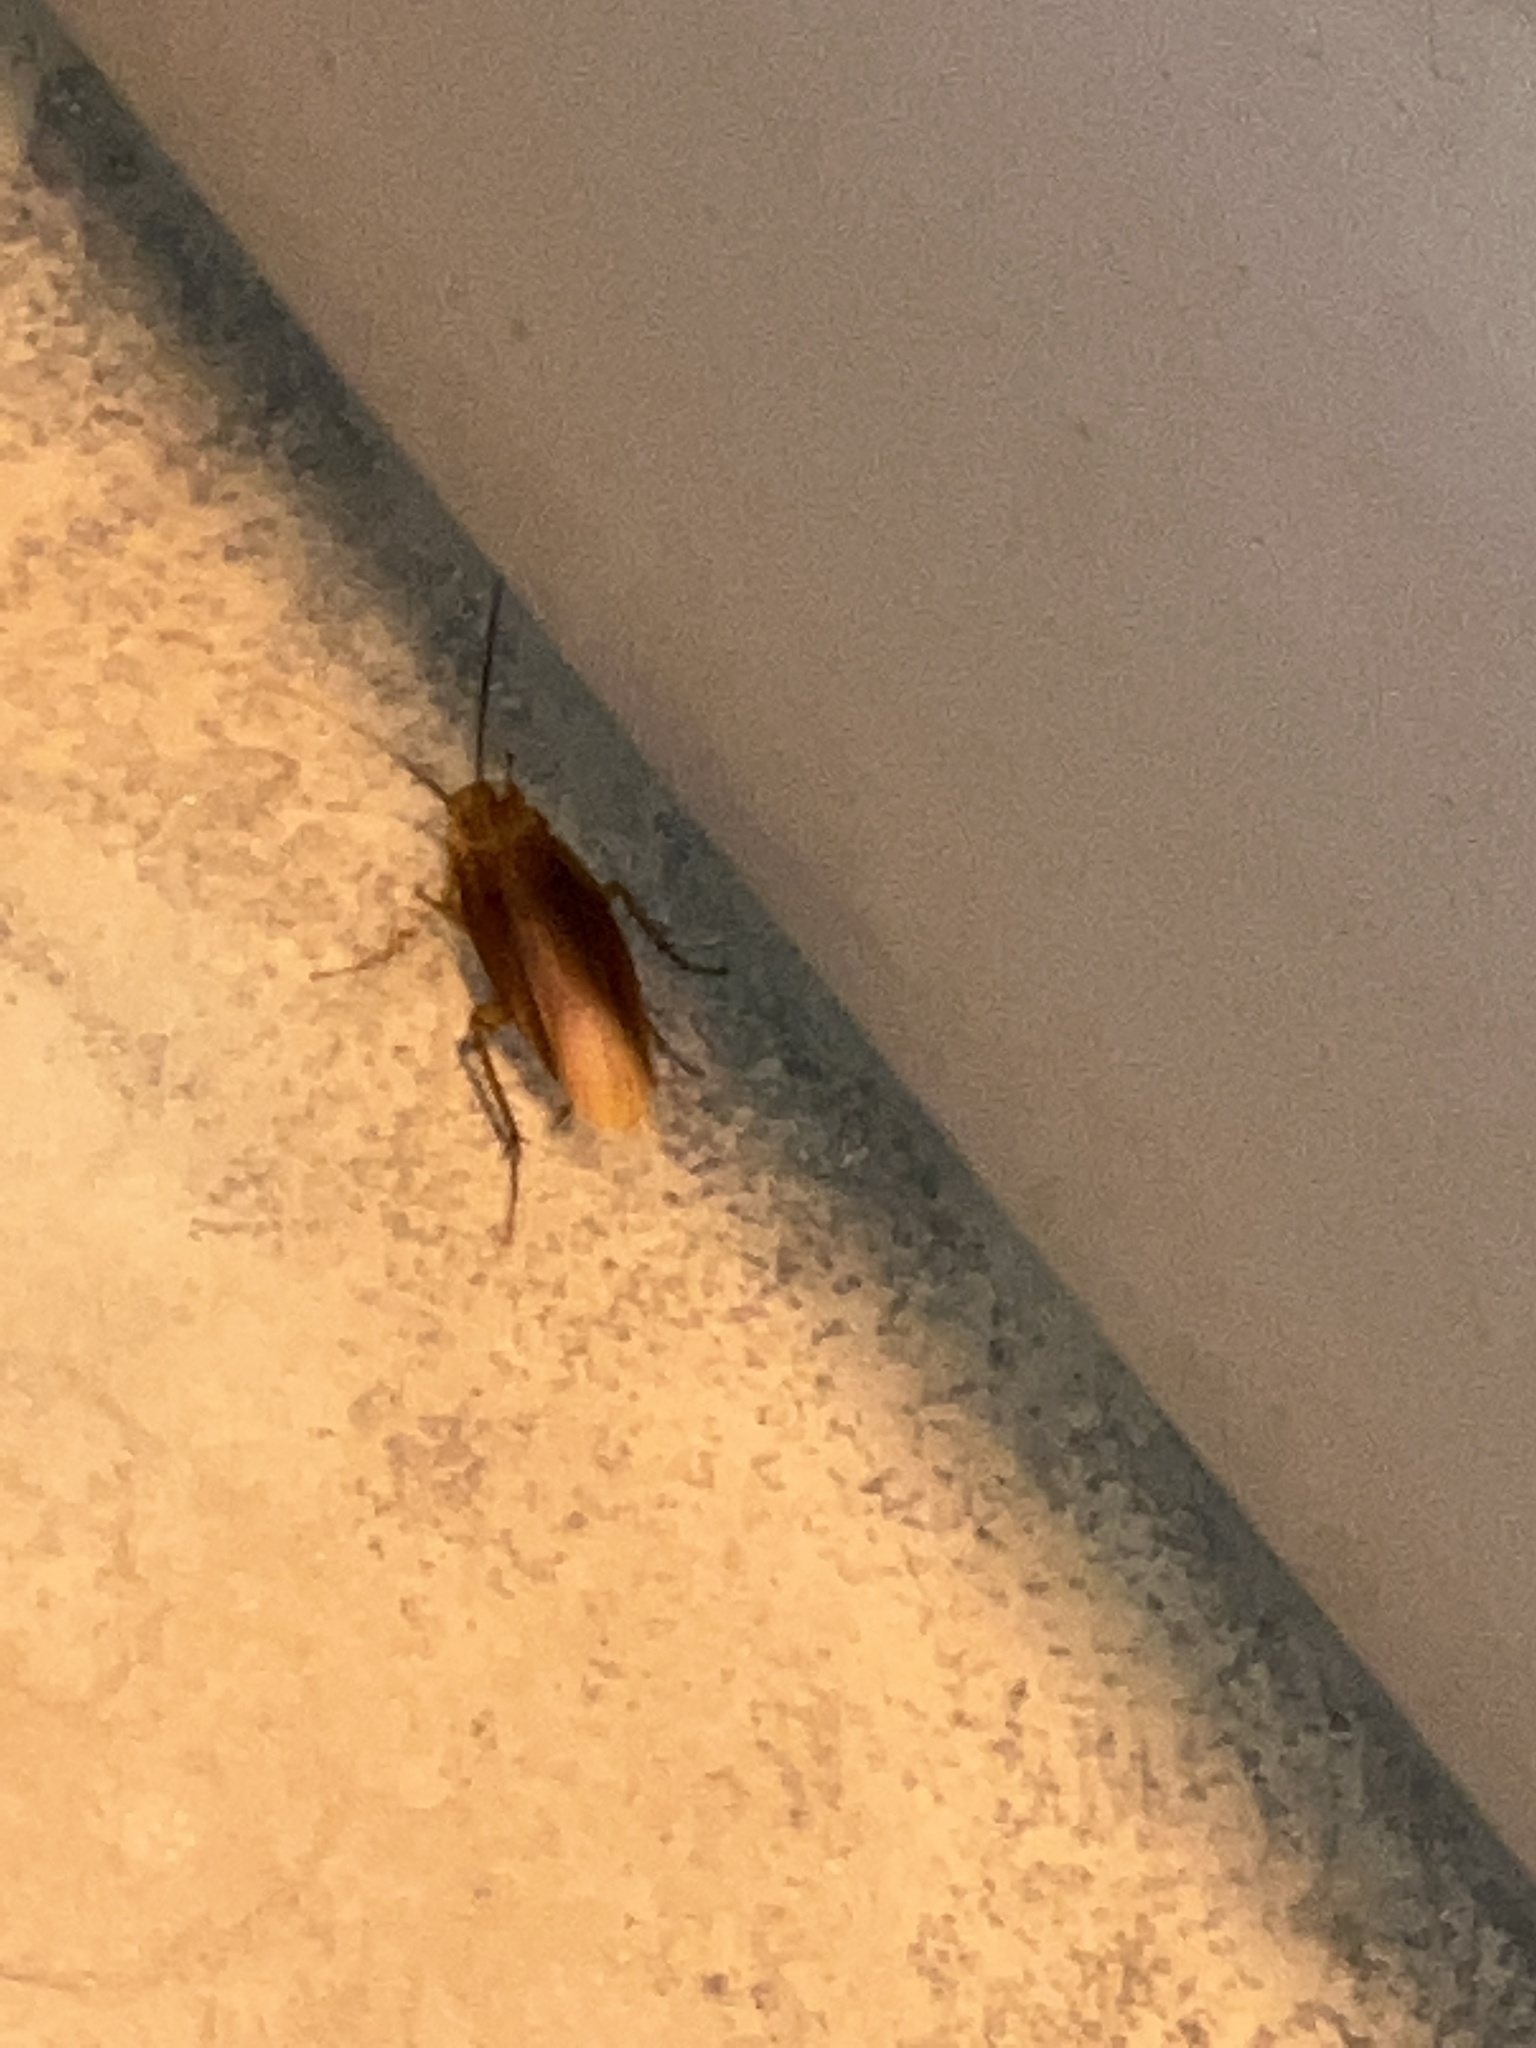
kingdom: Animalia
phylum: Arthropoda
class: Insecta
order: Blattodea
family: Blattidae
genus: Periplaneta
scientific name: Periplaneta americana
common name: American cockroach
